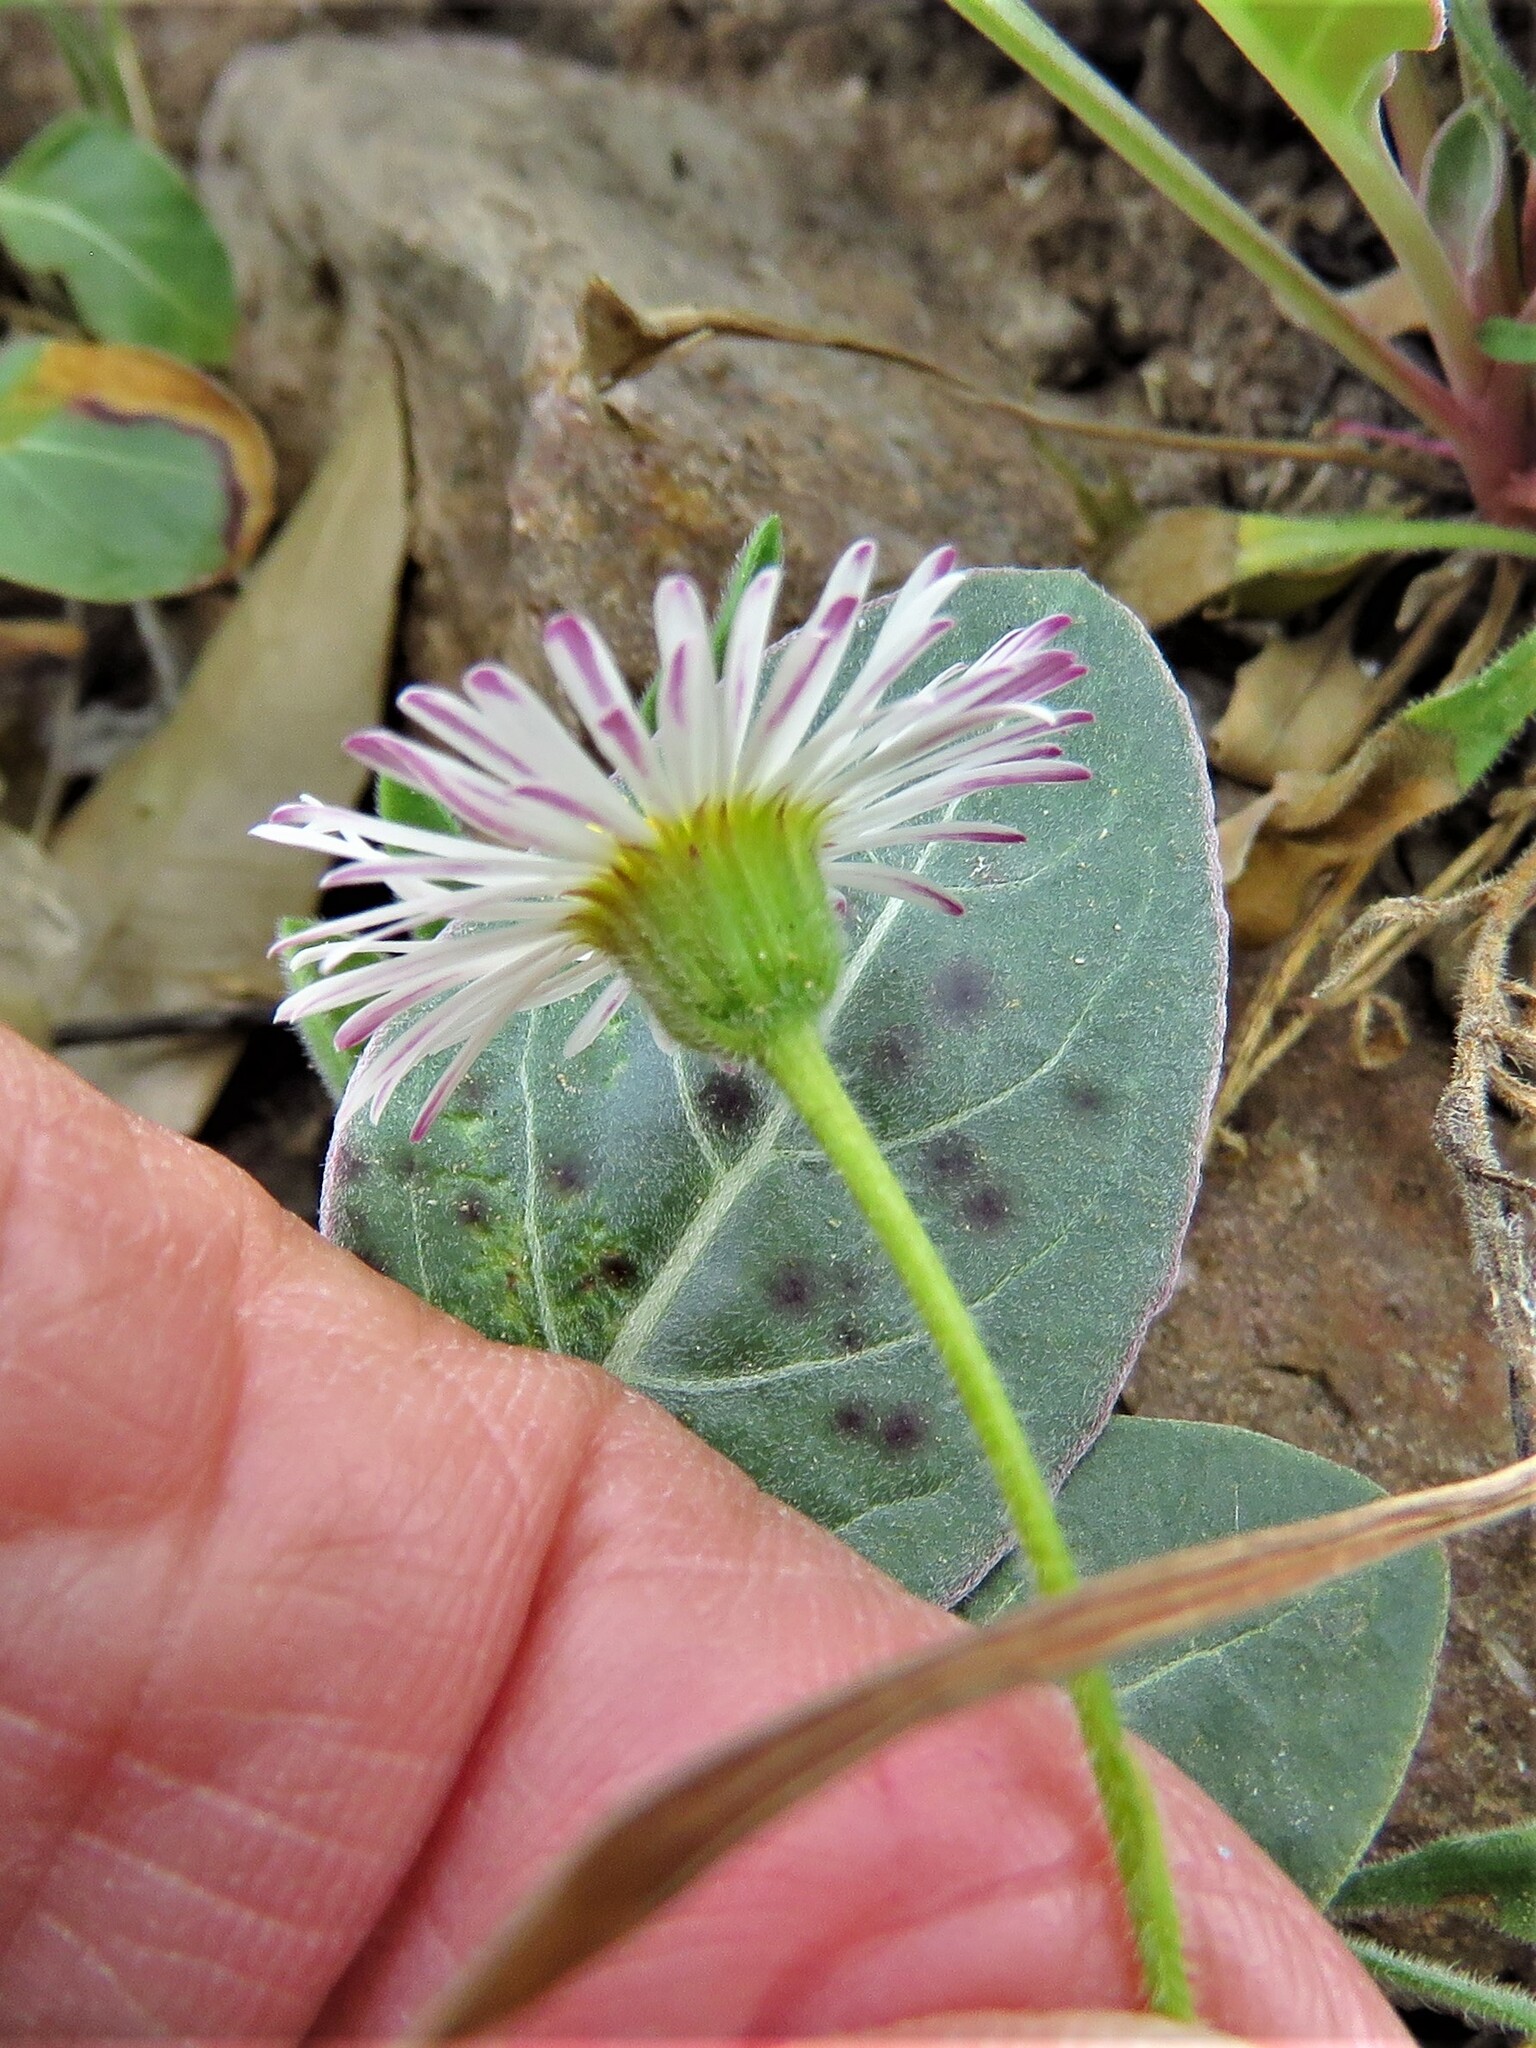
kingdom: Plantae
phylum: Tracheophyta
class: Magnoliopsida
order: Asterales
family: Asteraceae
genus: Erigeron
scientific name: Erigeron modestus
